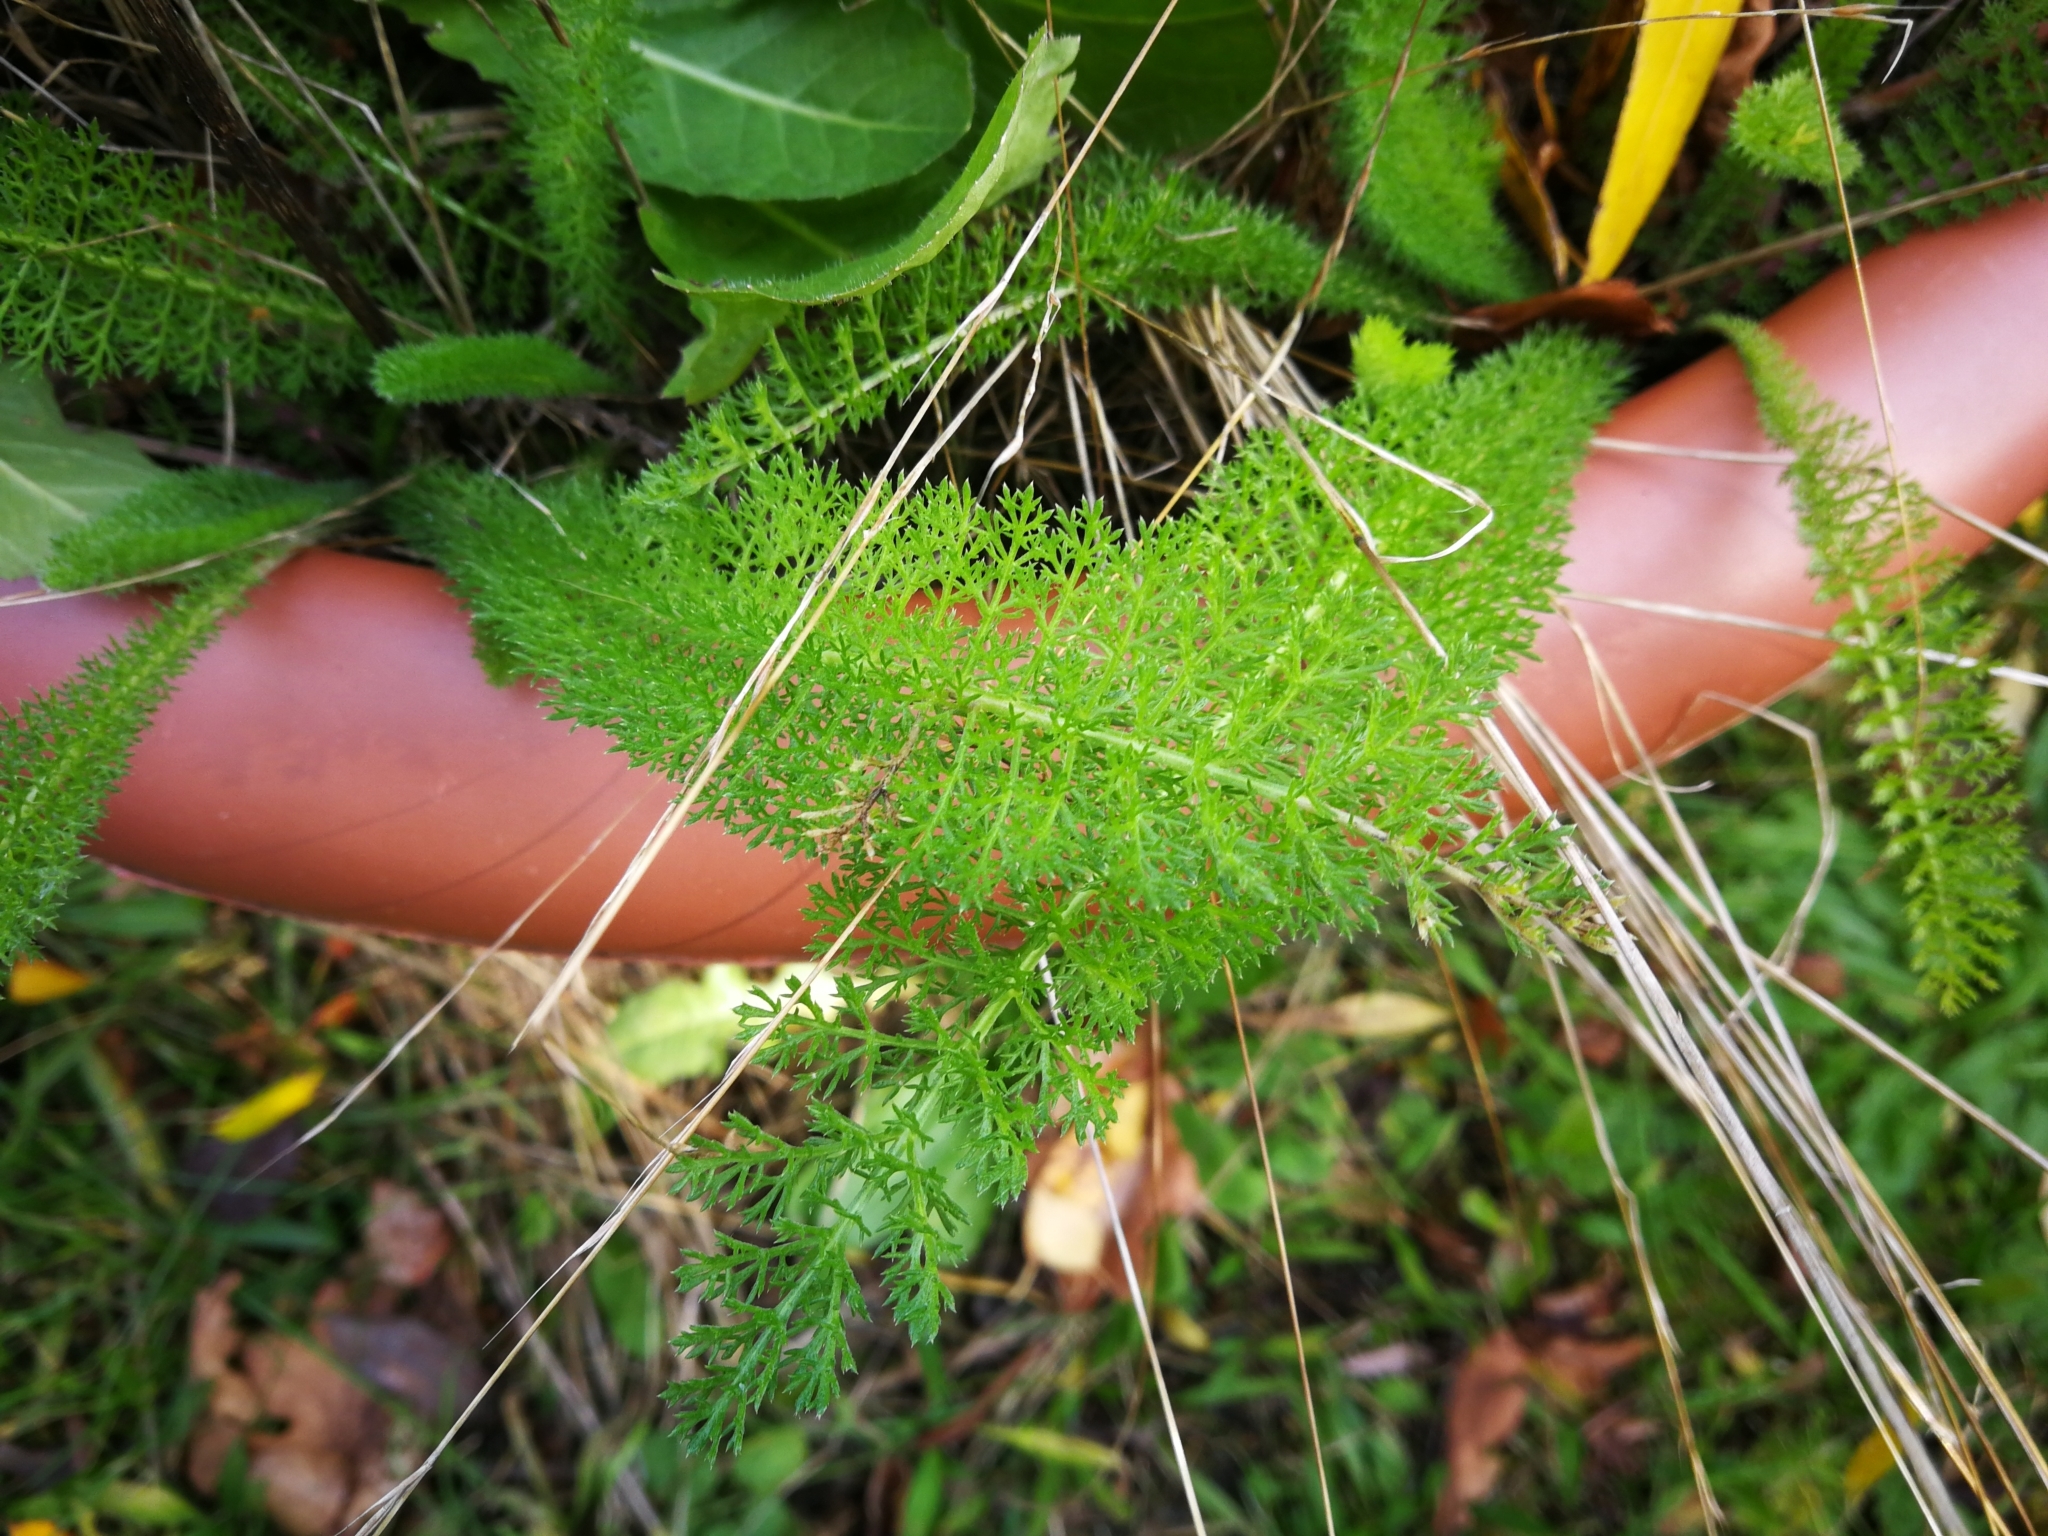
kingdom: Plantae
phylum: Tracheophyta
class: Magnoliopsida
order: Asterales
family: Asteraceae
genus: Achillea
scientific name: Achillea millefolium
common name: Yarrow
